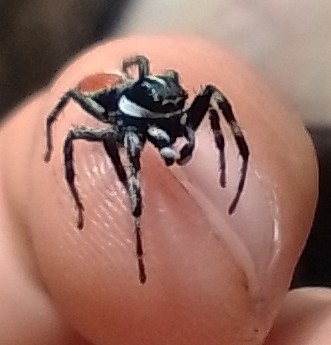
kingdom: Animalia
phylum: Arthropoda
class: Arachnida
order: Araneae
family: Salticidae
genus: Phiale
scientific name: Phiale roburifoliata
